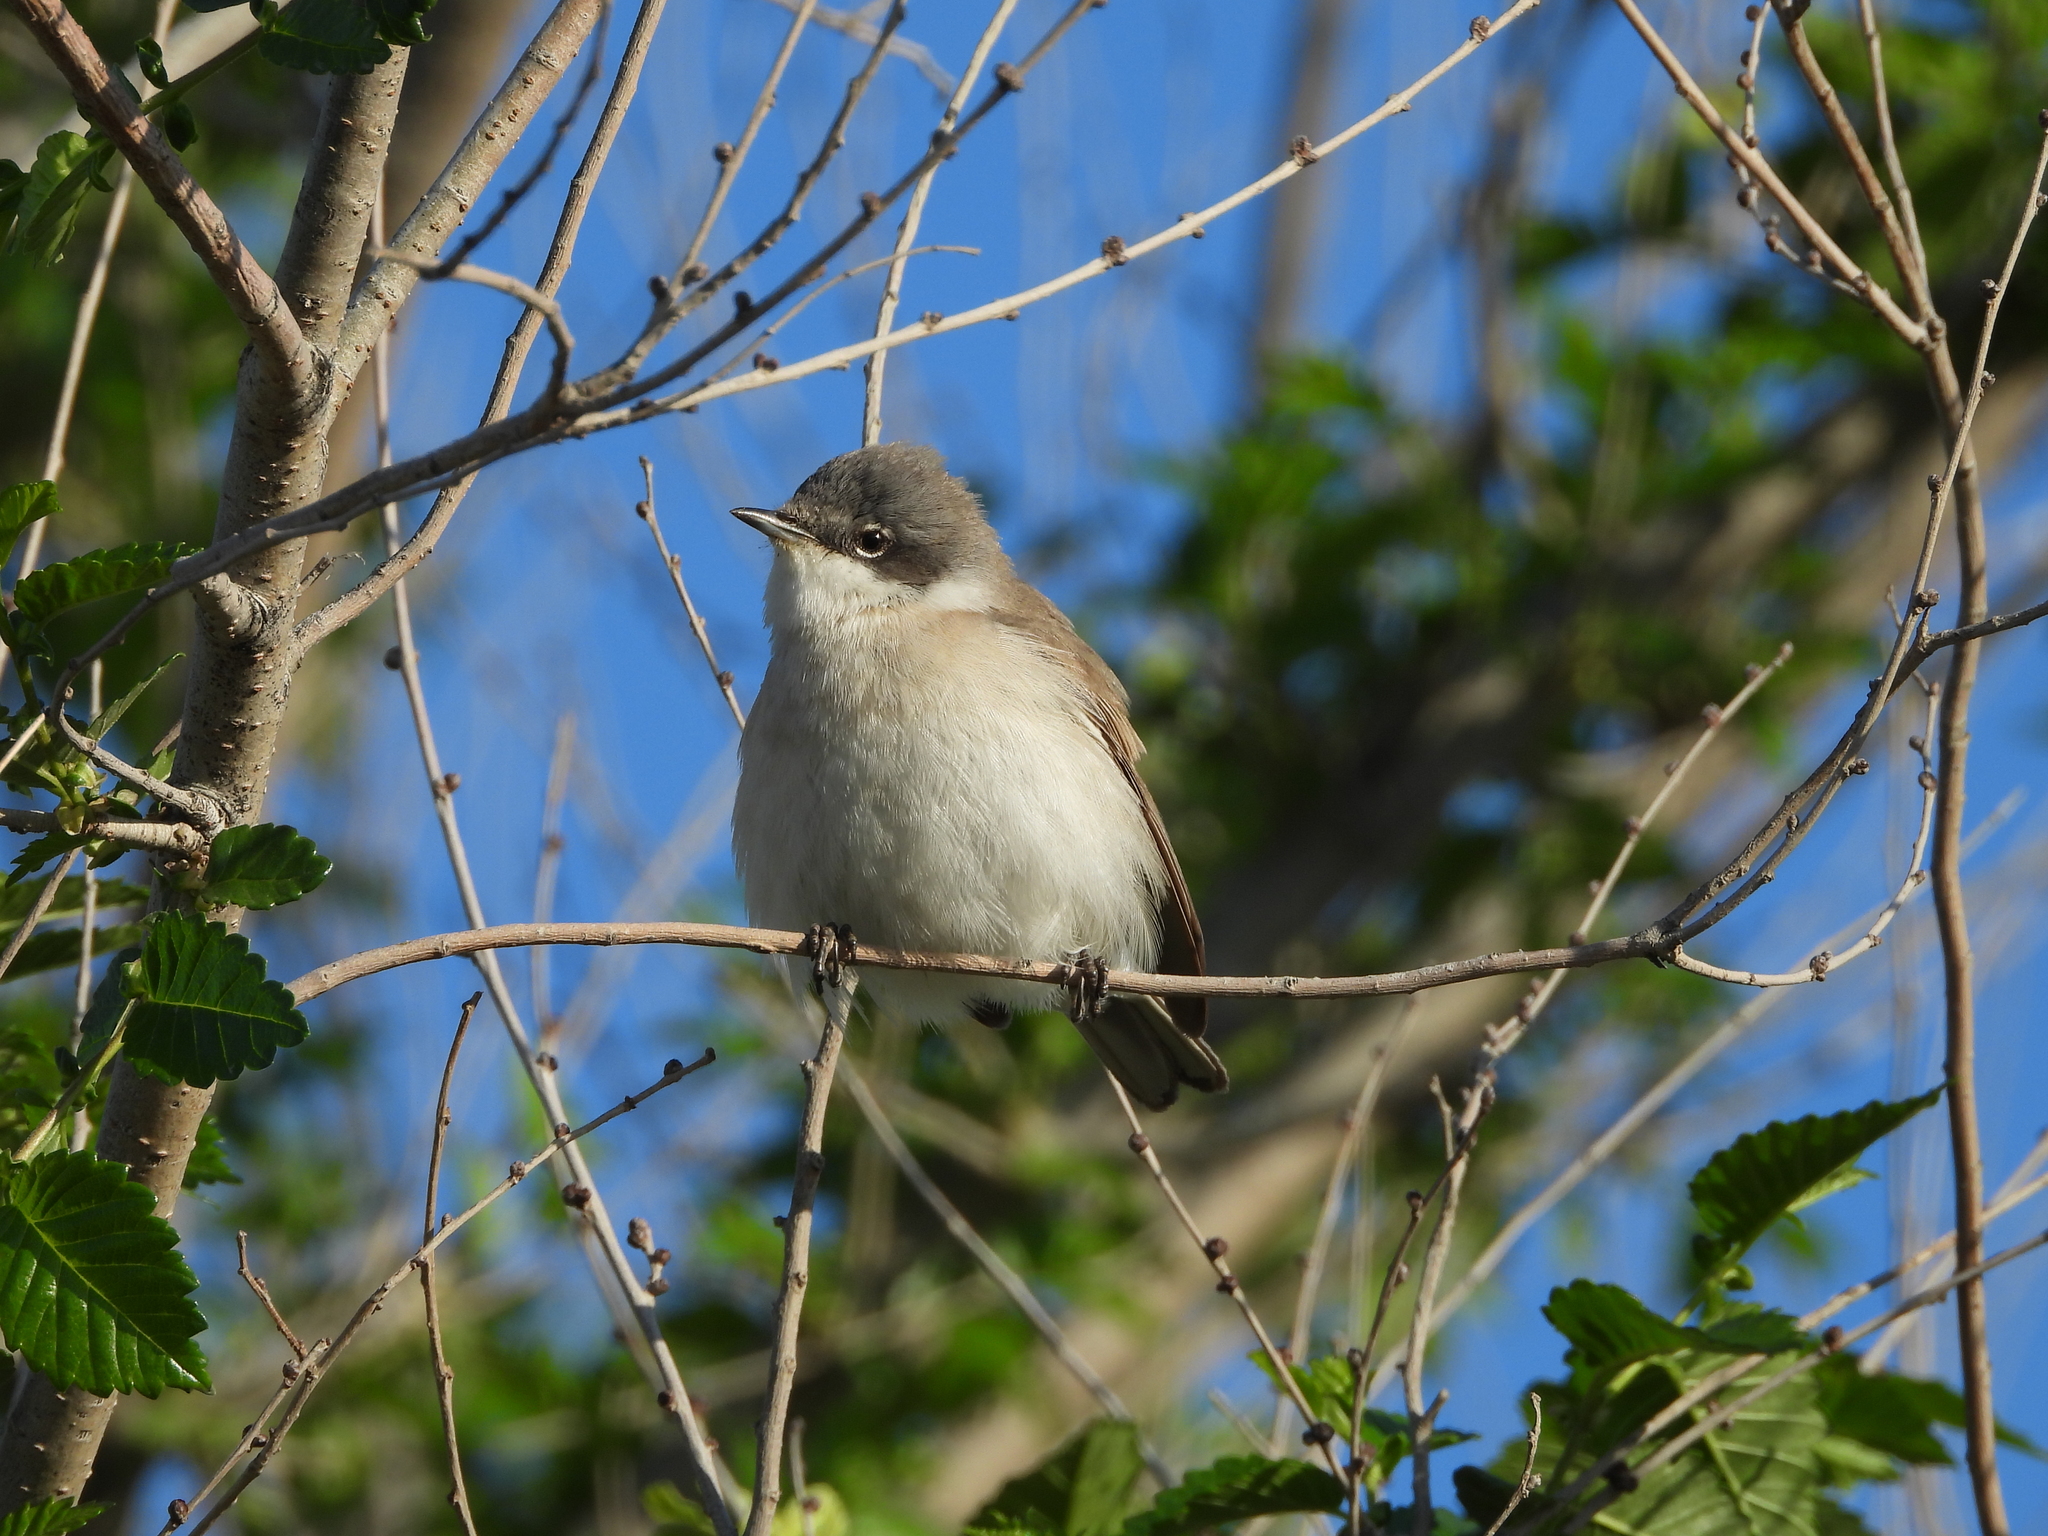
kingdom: Animalia
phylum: Chordata
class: Aves
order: Passeriformes
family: Sylviidae
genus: Sylvia
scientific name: Sylvia curruca
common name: Lesser whitethroat
